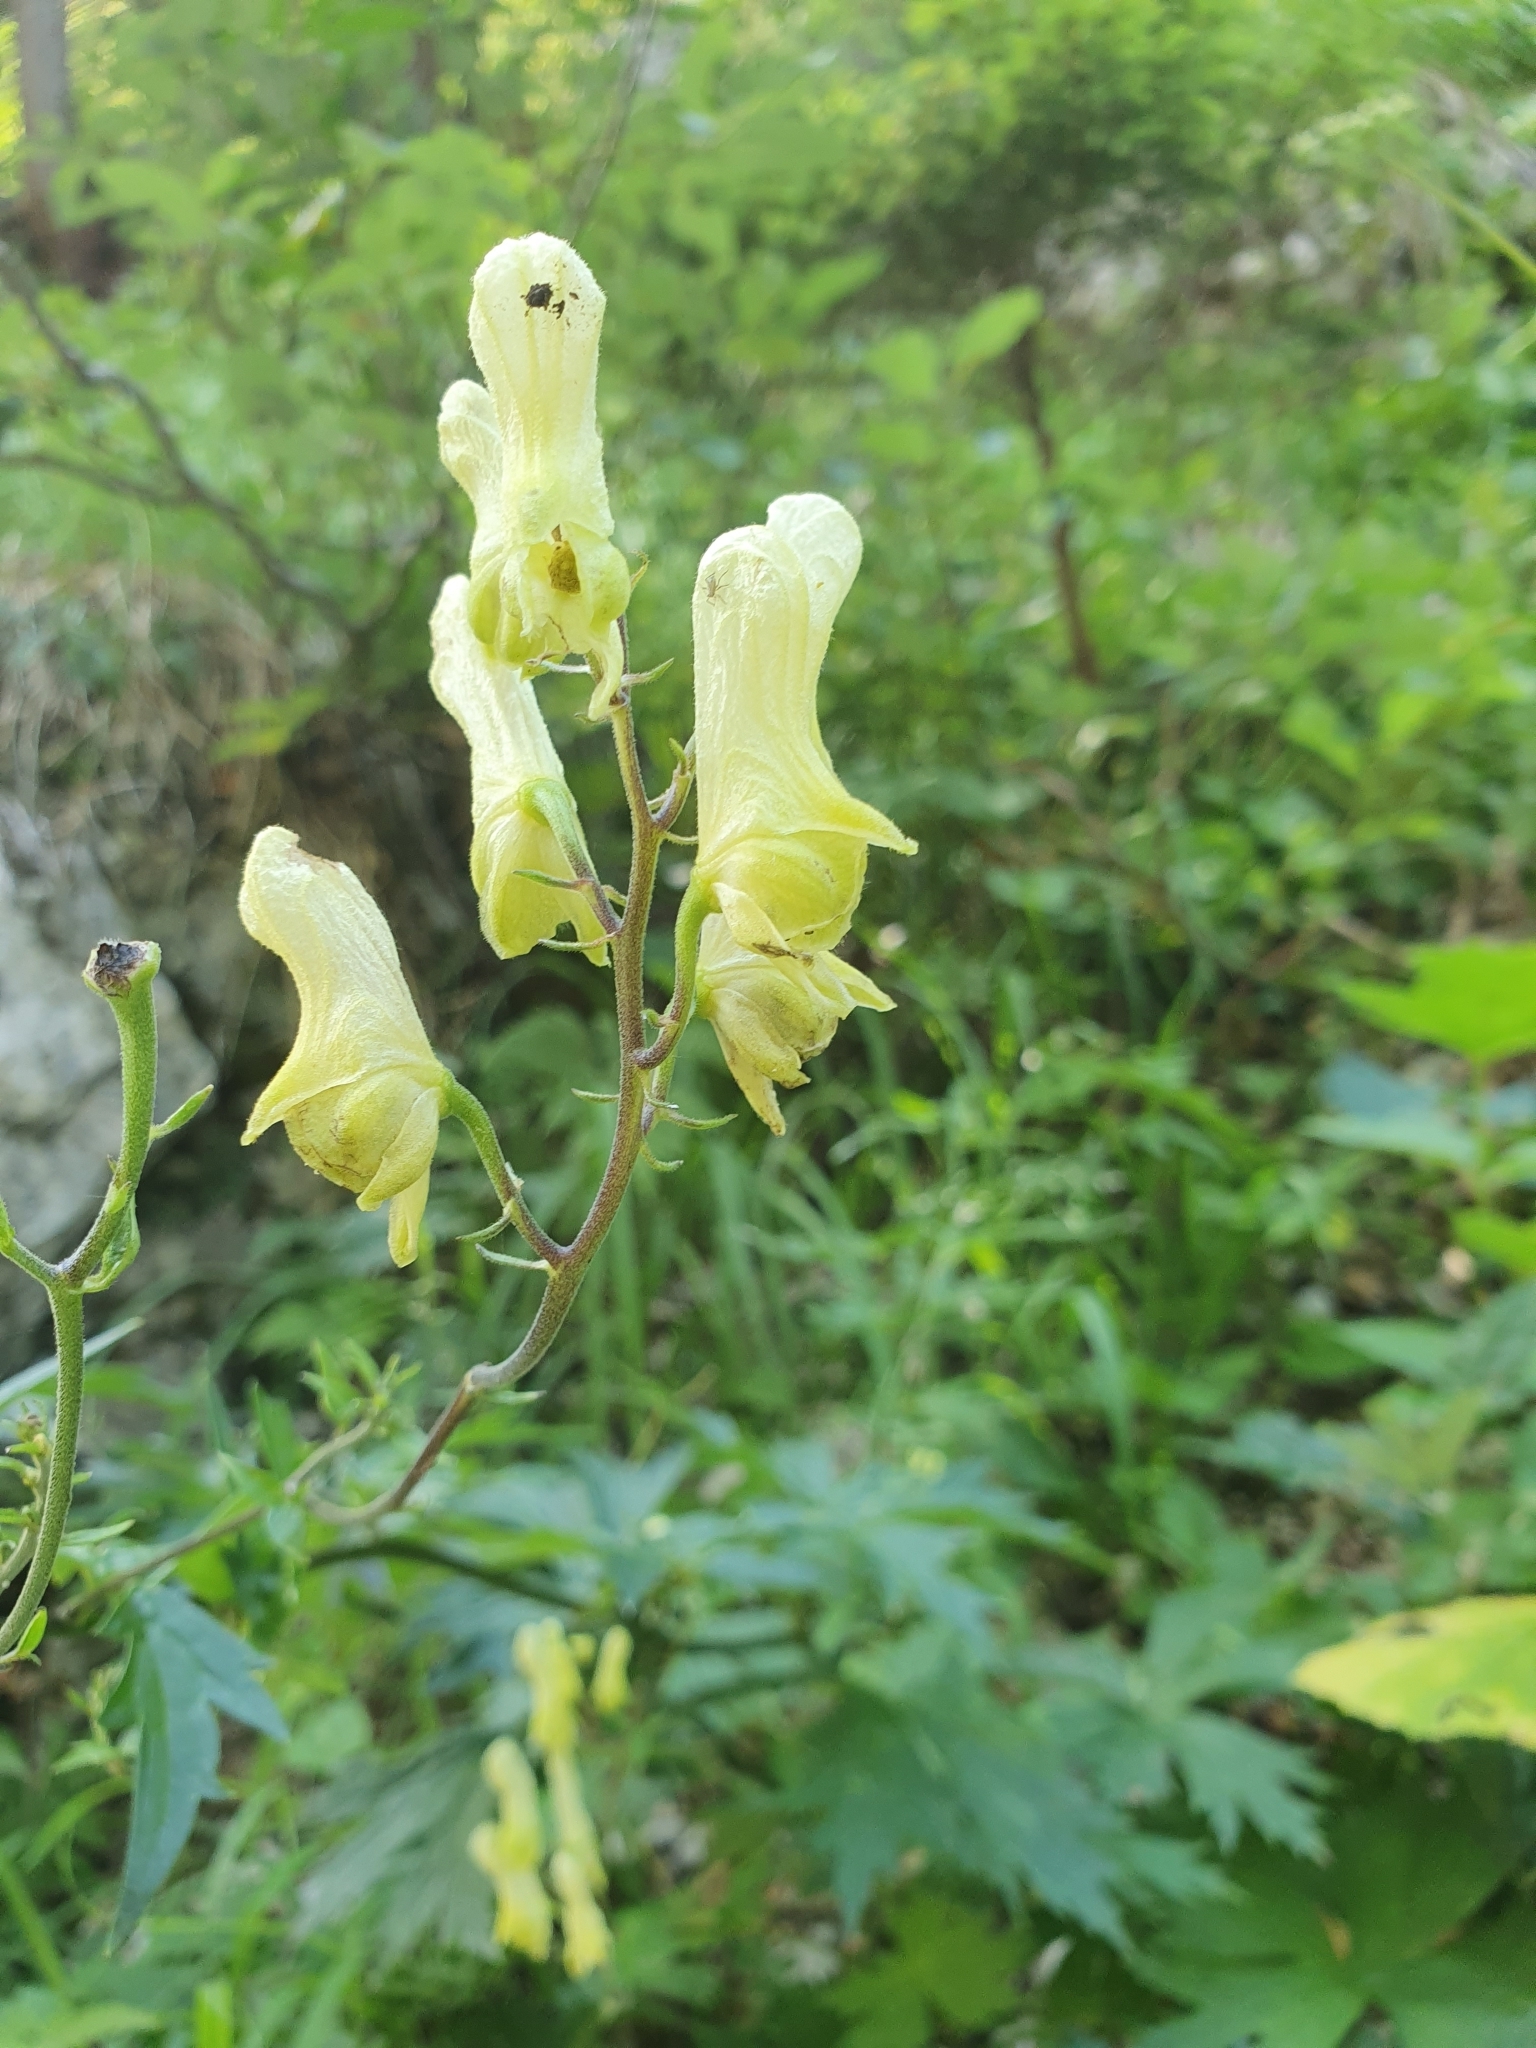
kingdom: Plantae
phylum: Tracheophyta
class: Magnoliopsida
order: Ranunculales
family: Ranunculaceae
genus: Aconitum
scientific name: Aconitum lycoctonum
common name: Wolf's-bane
